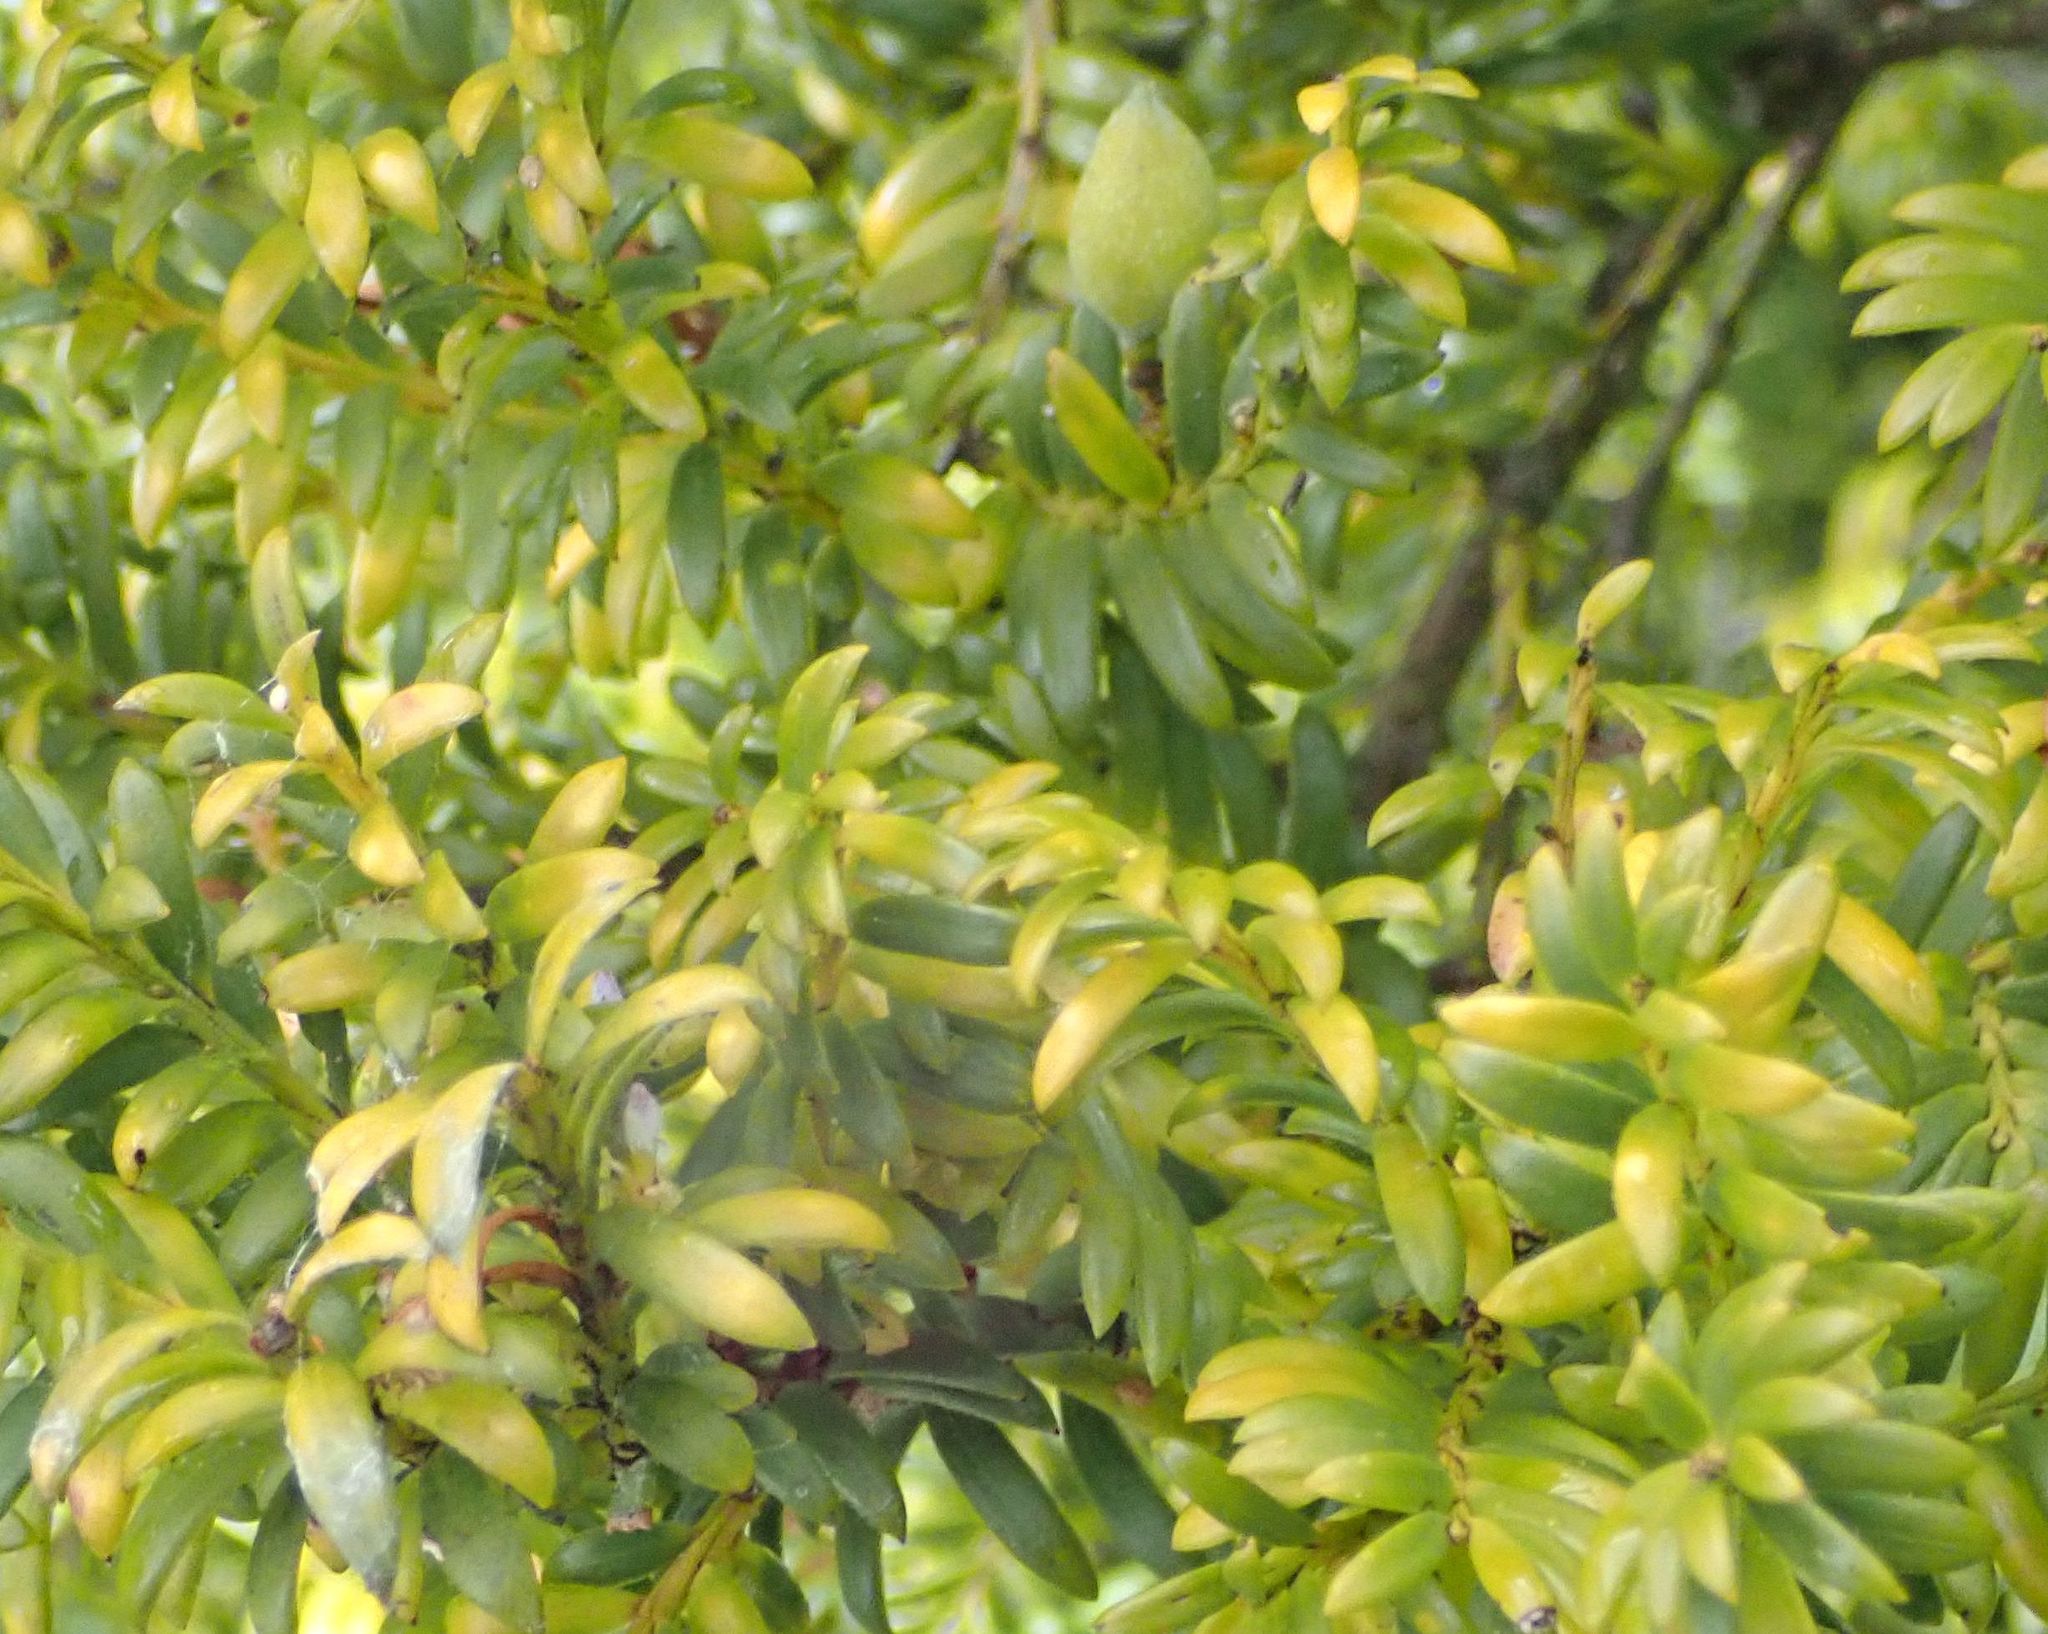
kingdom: Plantae
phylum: Tracheophyta
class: Pinopsida
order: Pinales
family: Taxaceae
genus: Taxus
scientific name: Taxus baccata
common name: Yew
